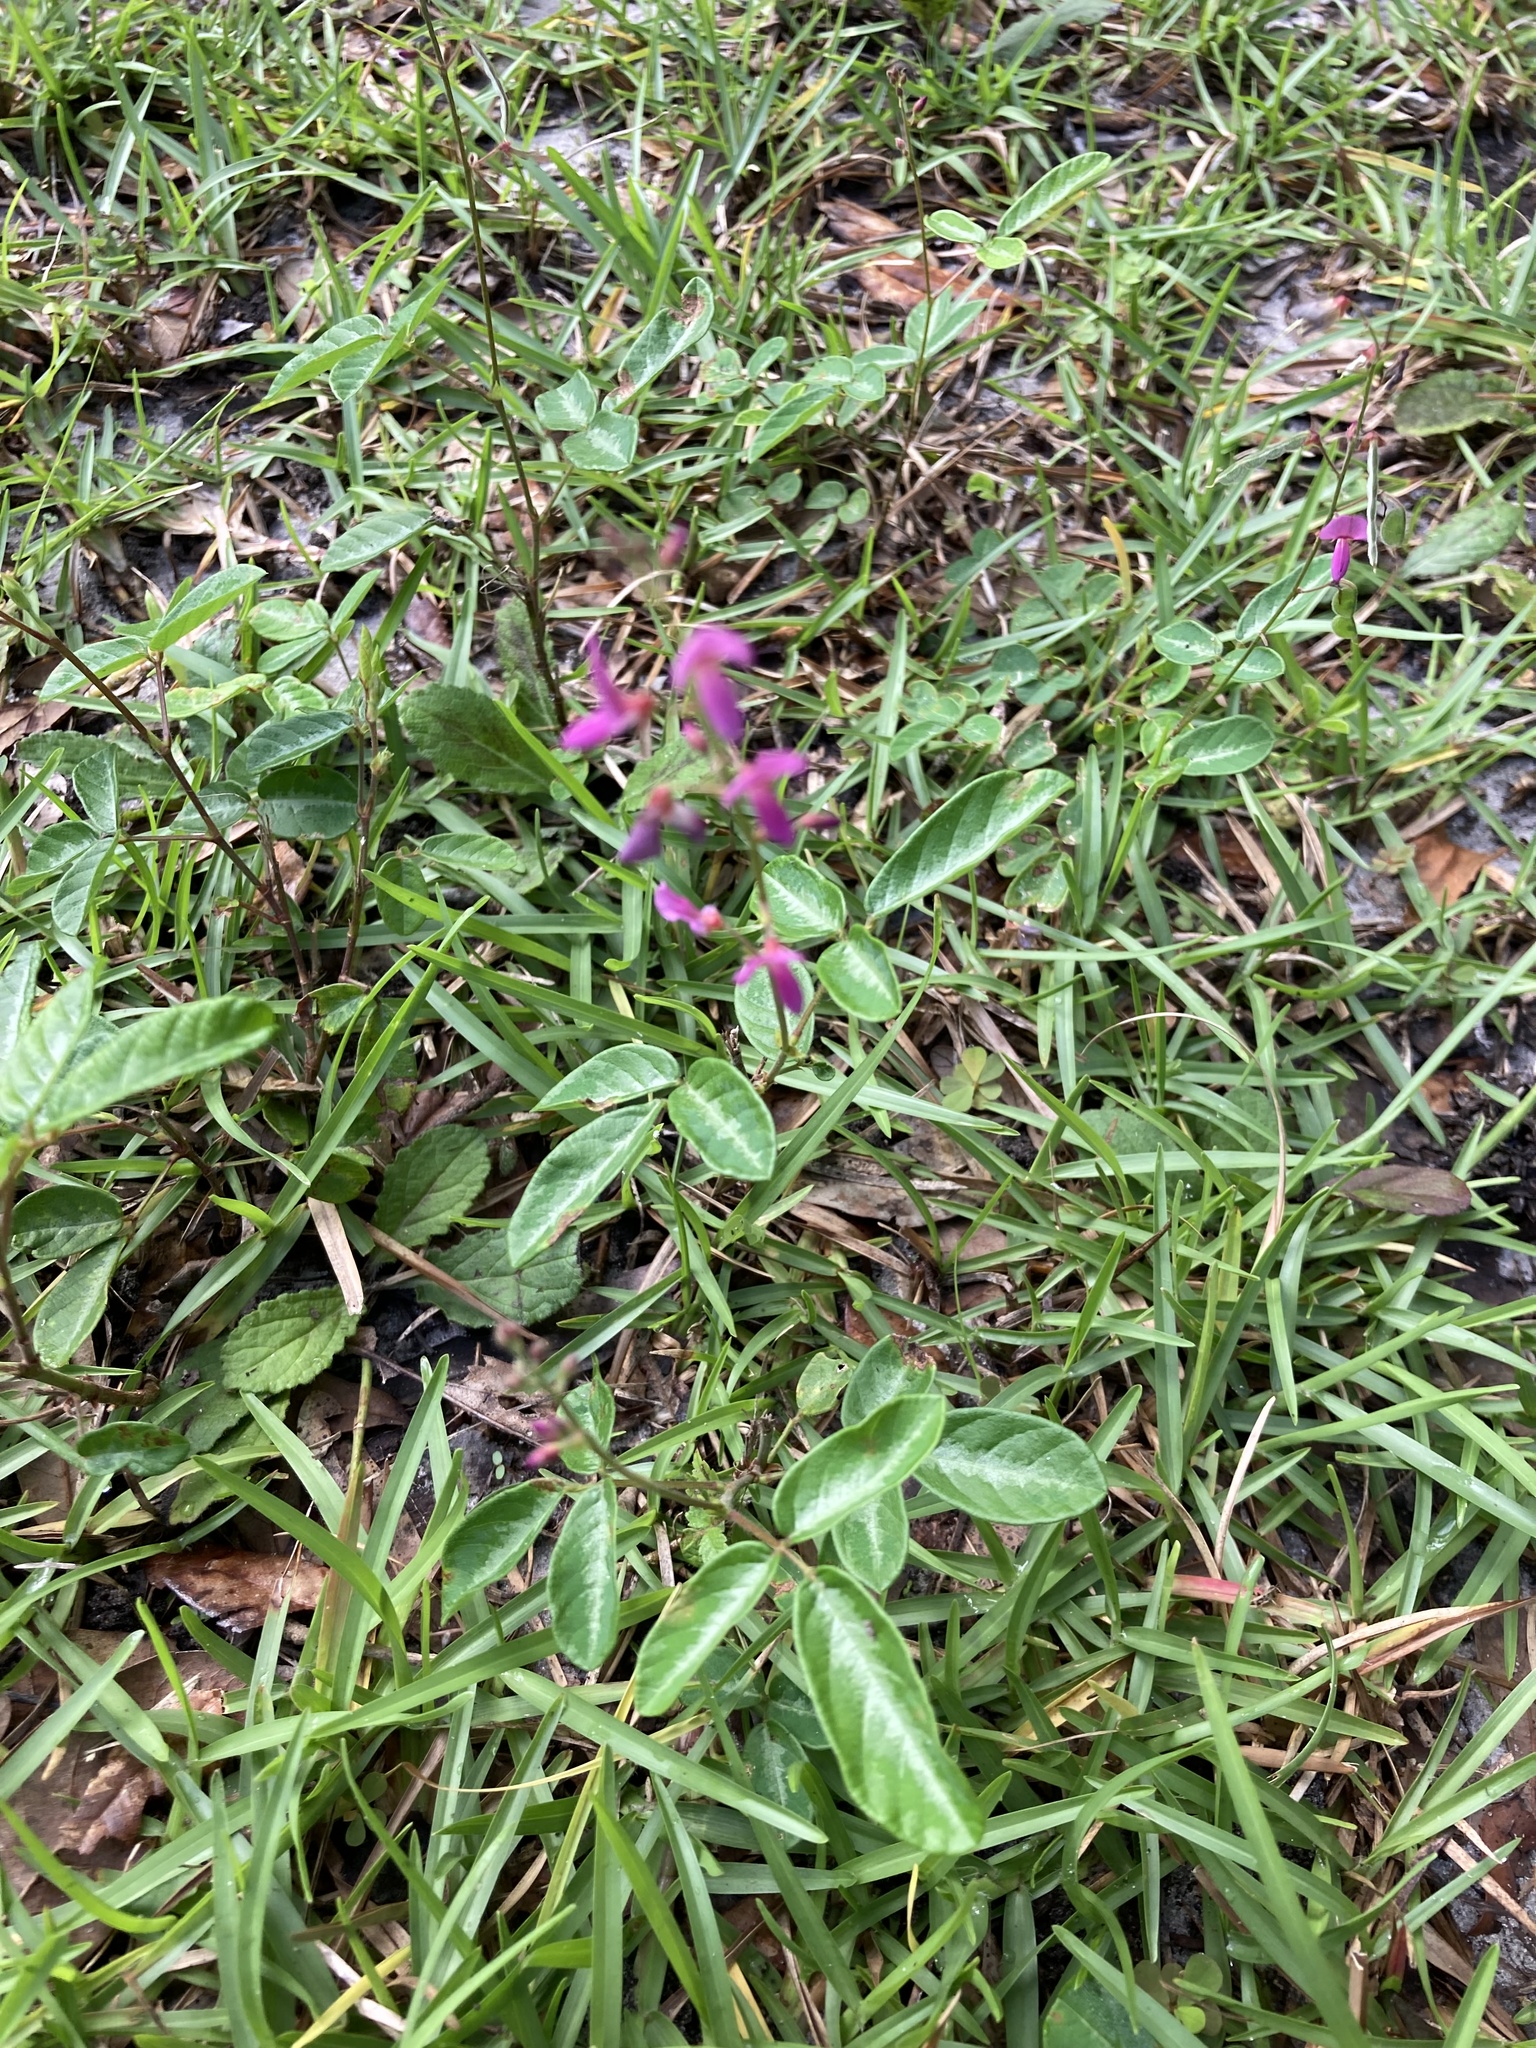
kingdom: Plantae
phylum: Tracheophyta
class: Magnoliopsida
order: Fabales
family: Fabaceae
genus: Desmodium
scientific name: Desmodium incanum
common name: Tickclover
